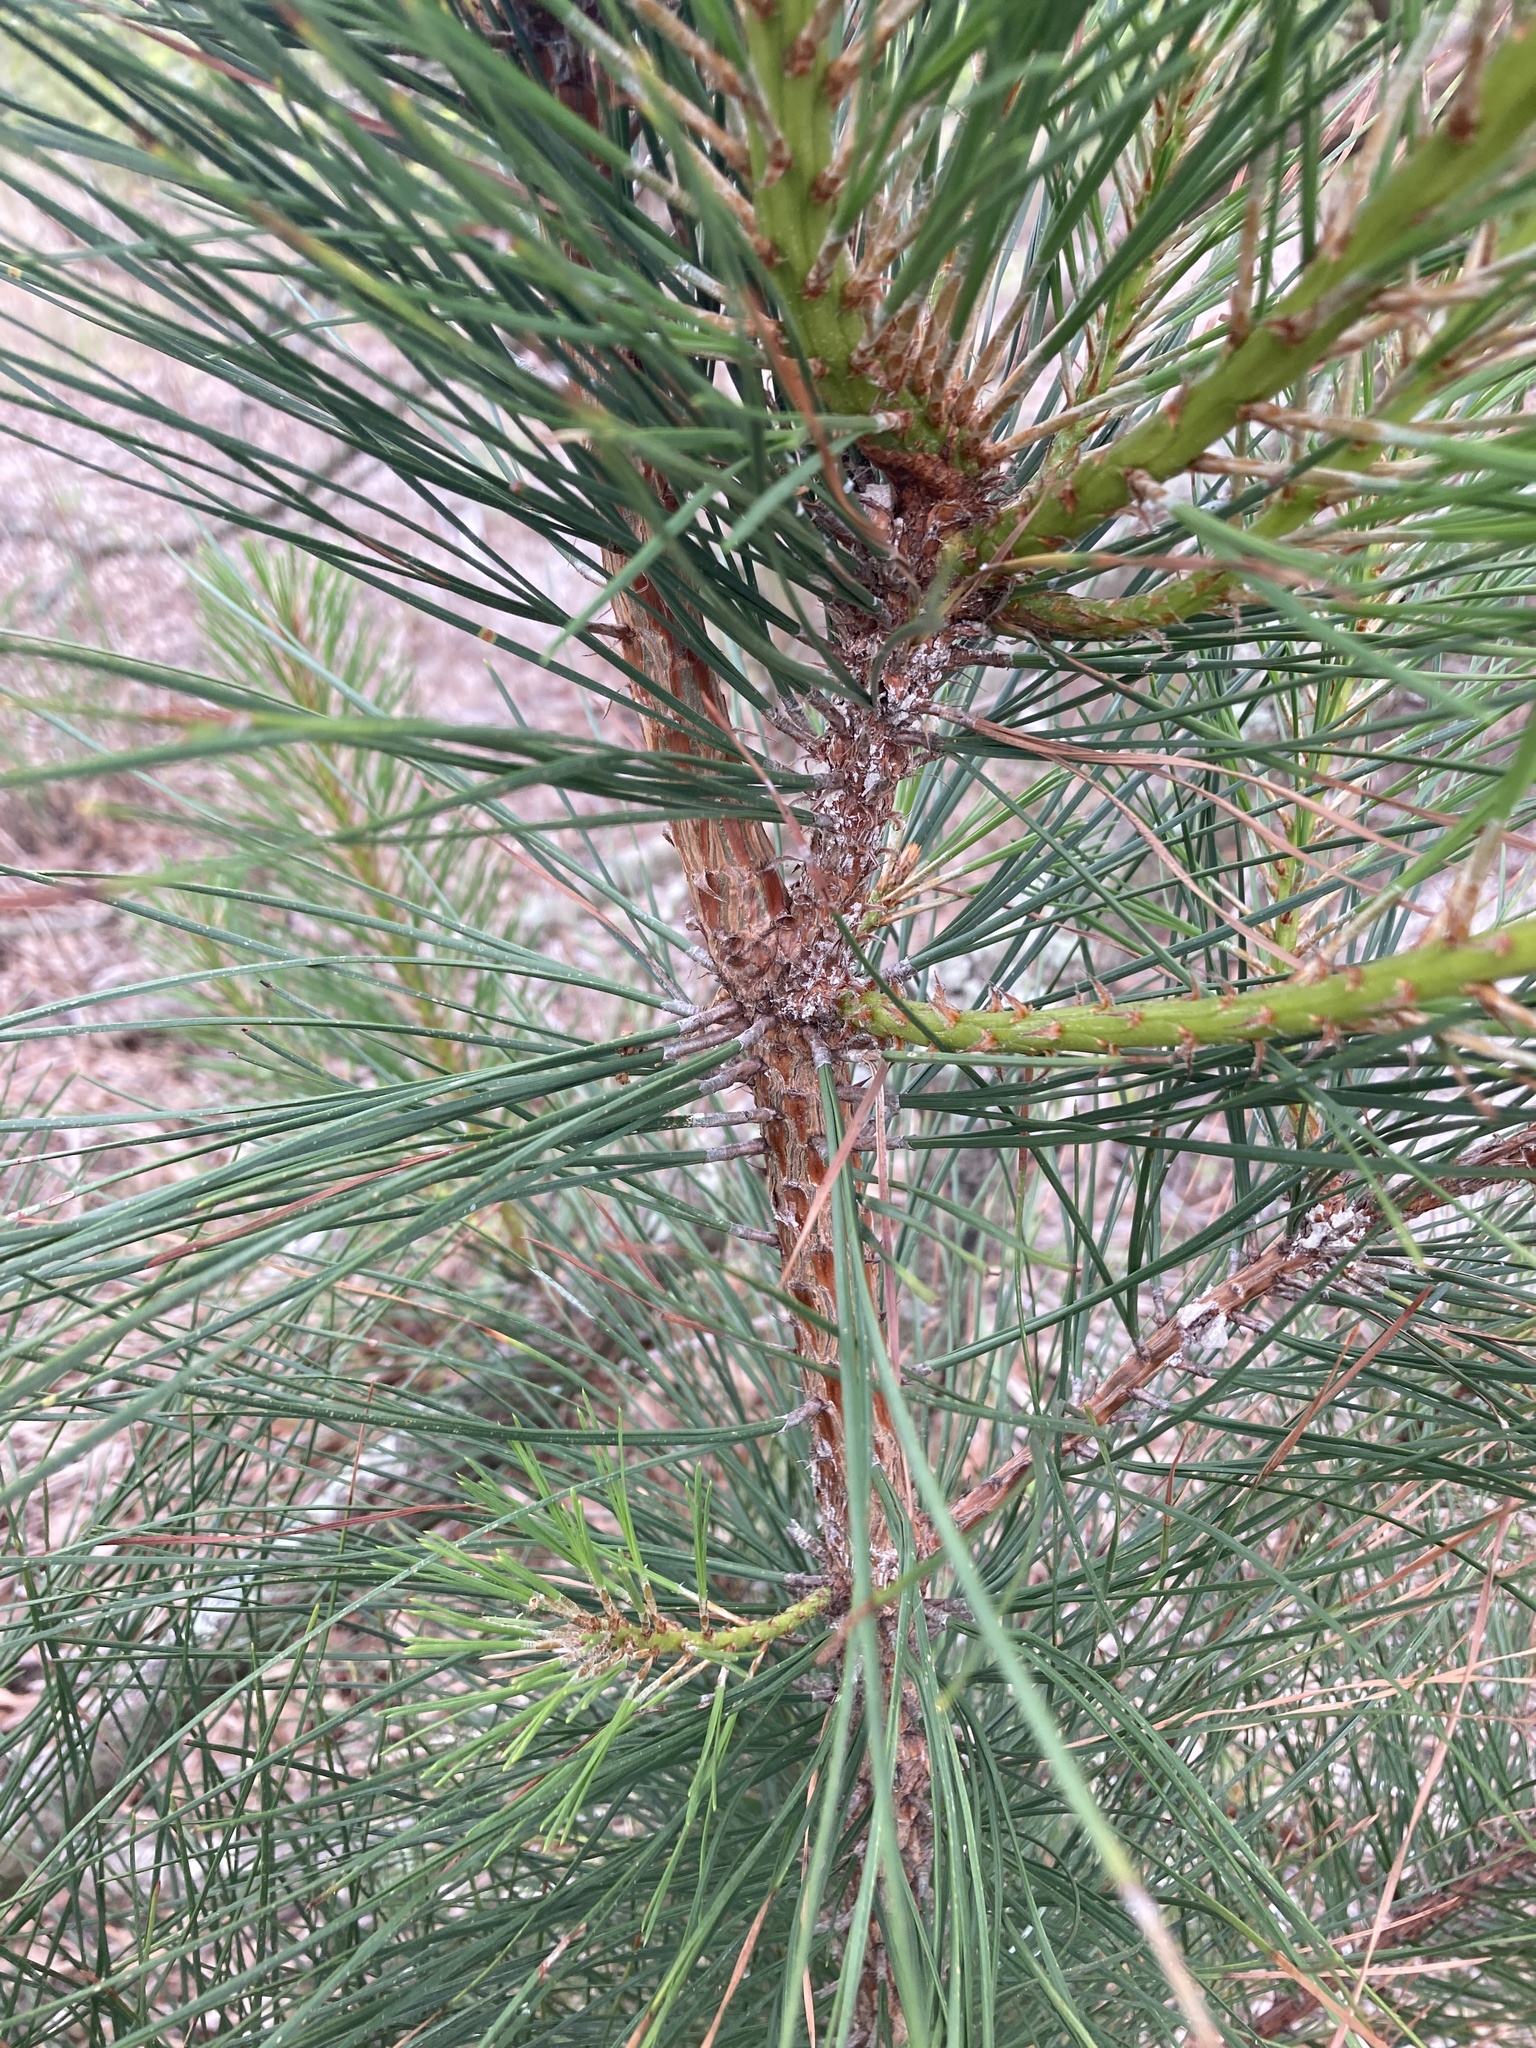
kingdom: Plantae
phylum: Tracheophyta
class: Pinopsida
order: Pinales
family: Pinaceae
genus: Pinus
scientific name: Pinus taeda
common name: Loblolly pine
